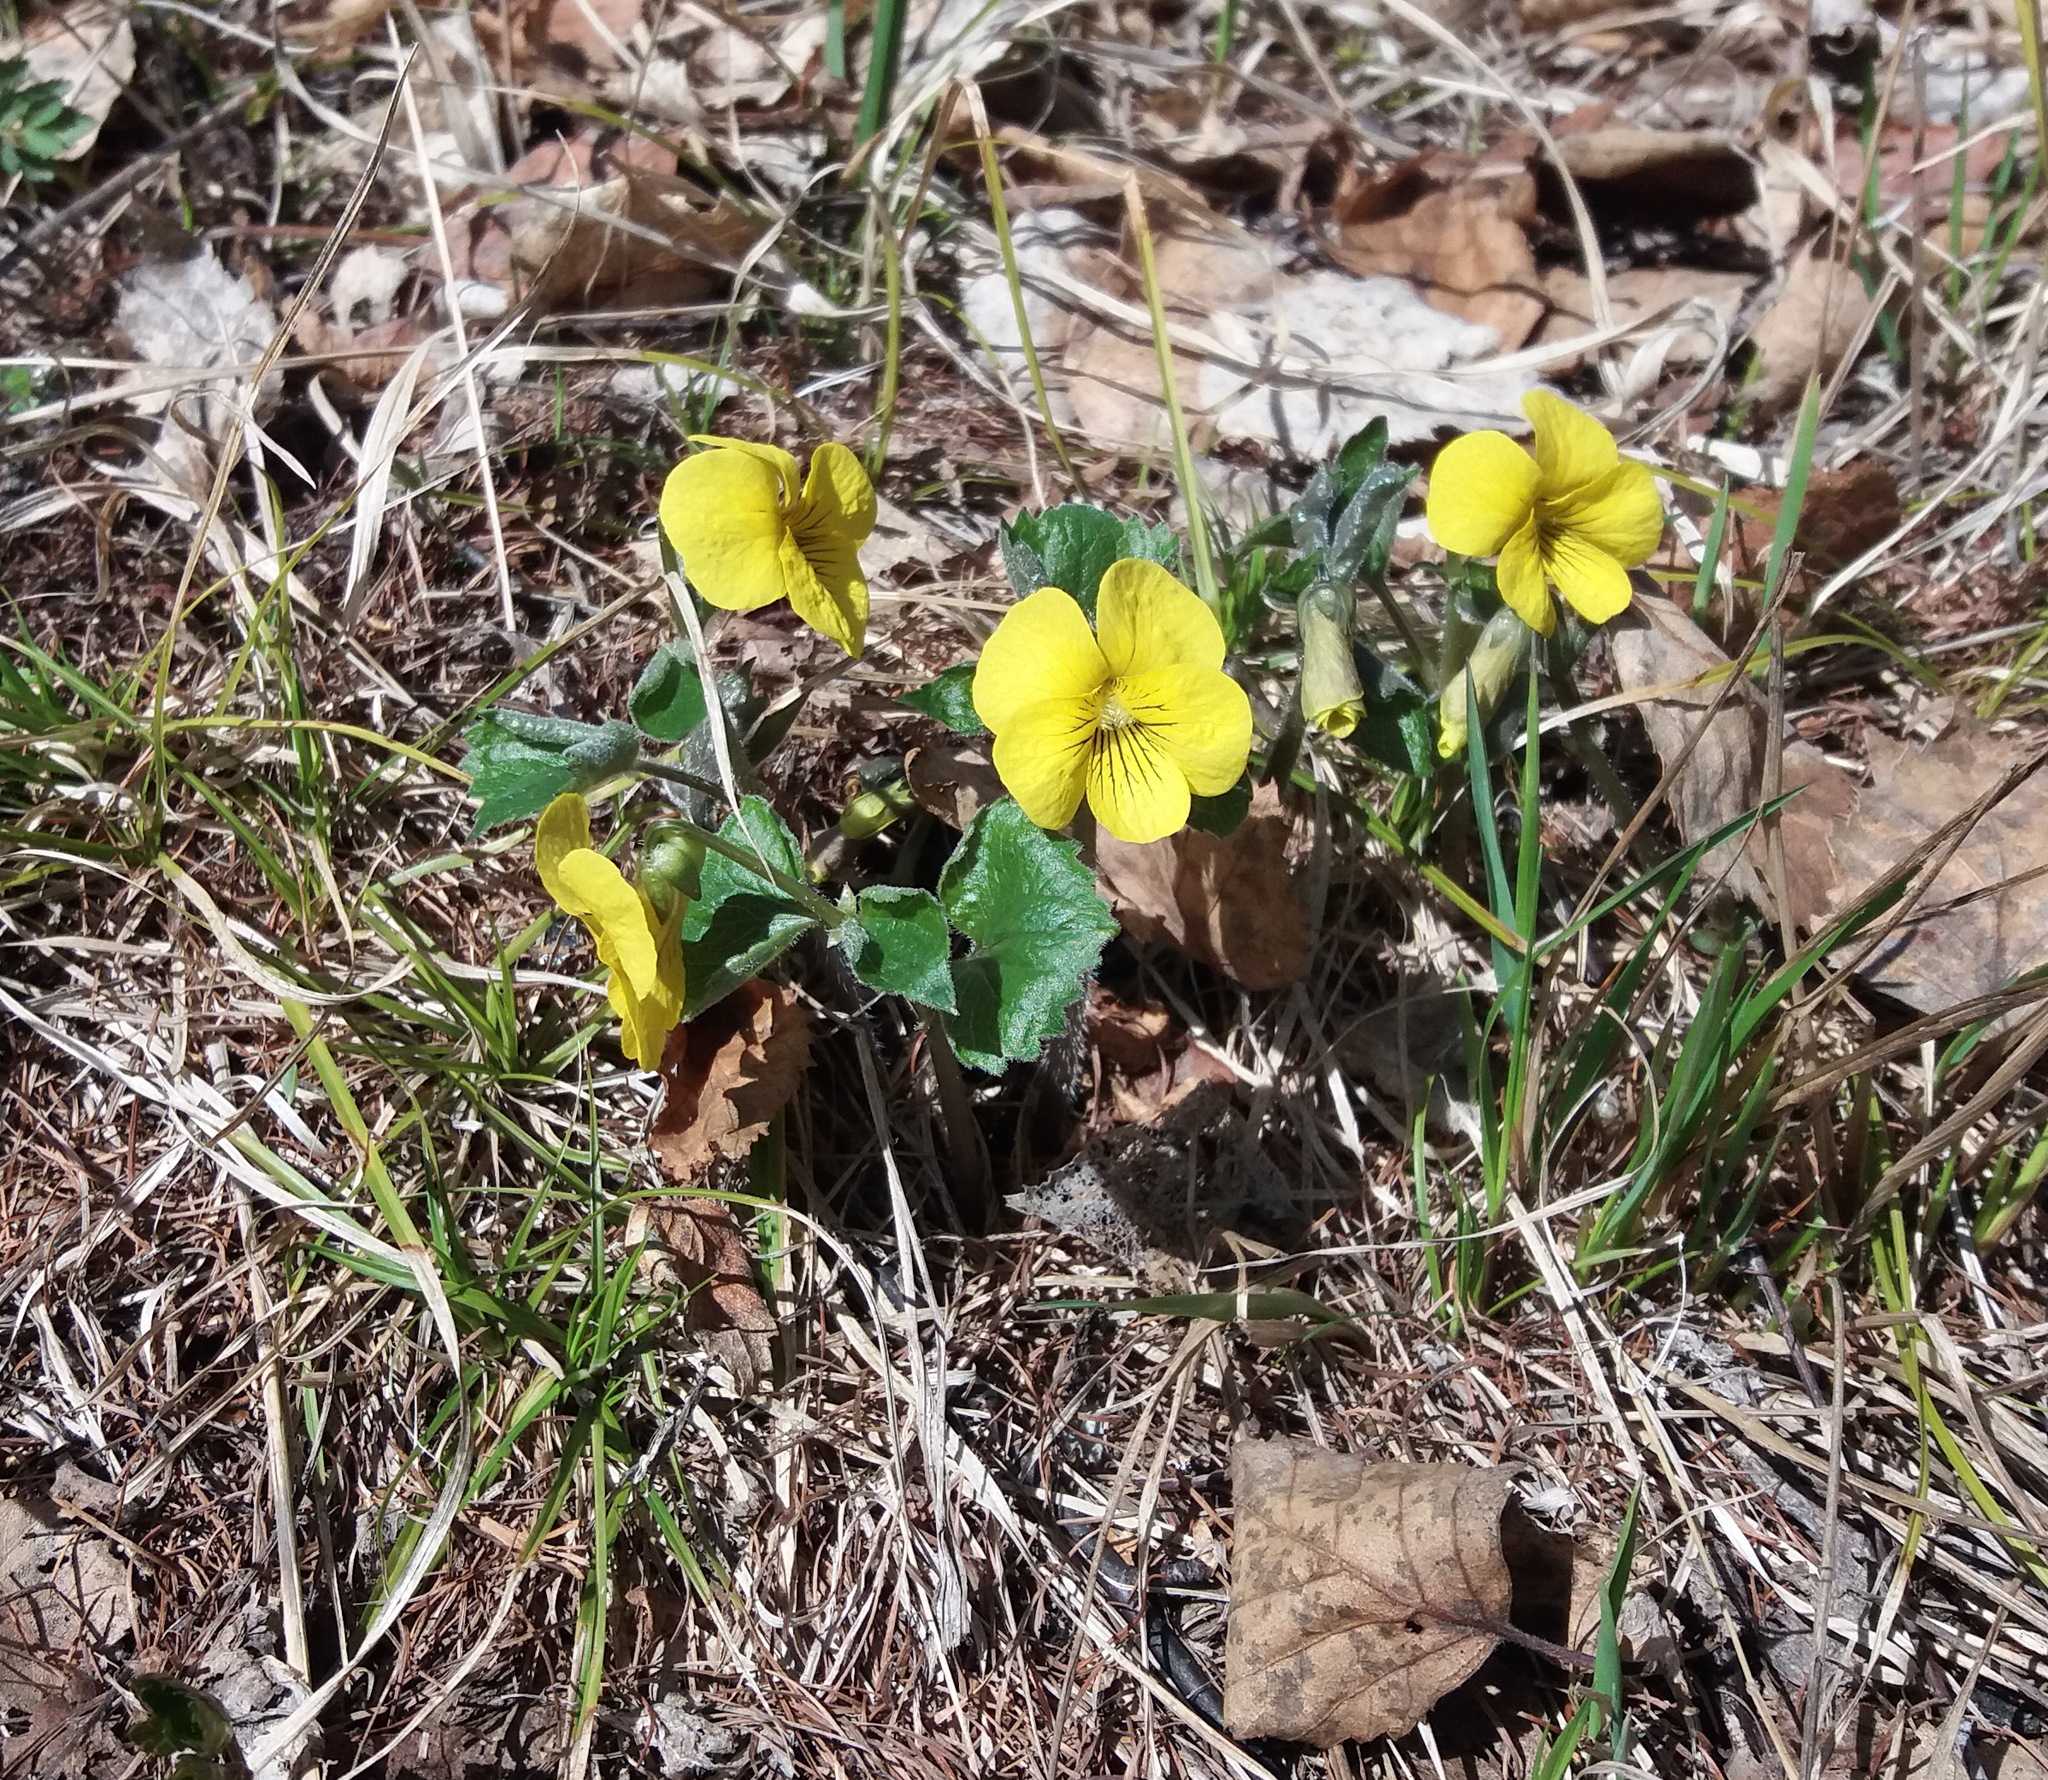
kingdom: Plantae
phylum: Tracheophyta
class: Magnoliopsida
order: Malpighiales
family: Violaceae
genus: Viola
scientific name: Viola uniflora
